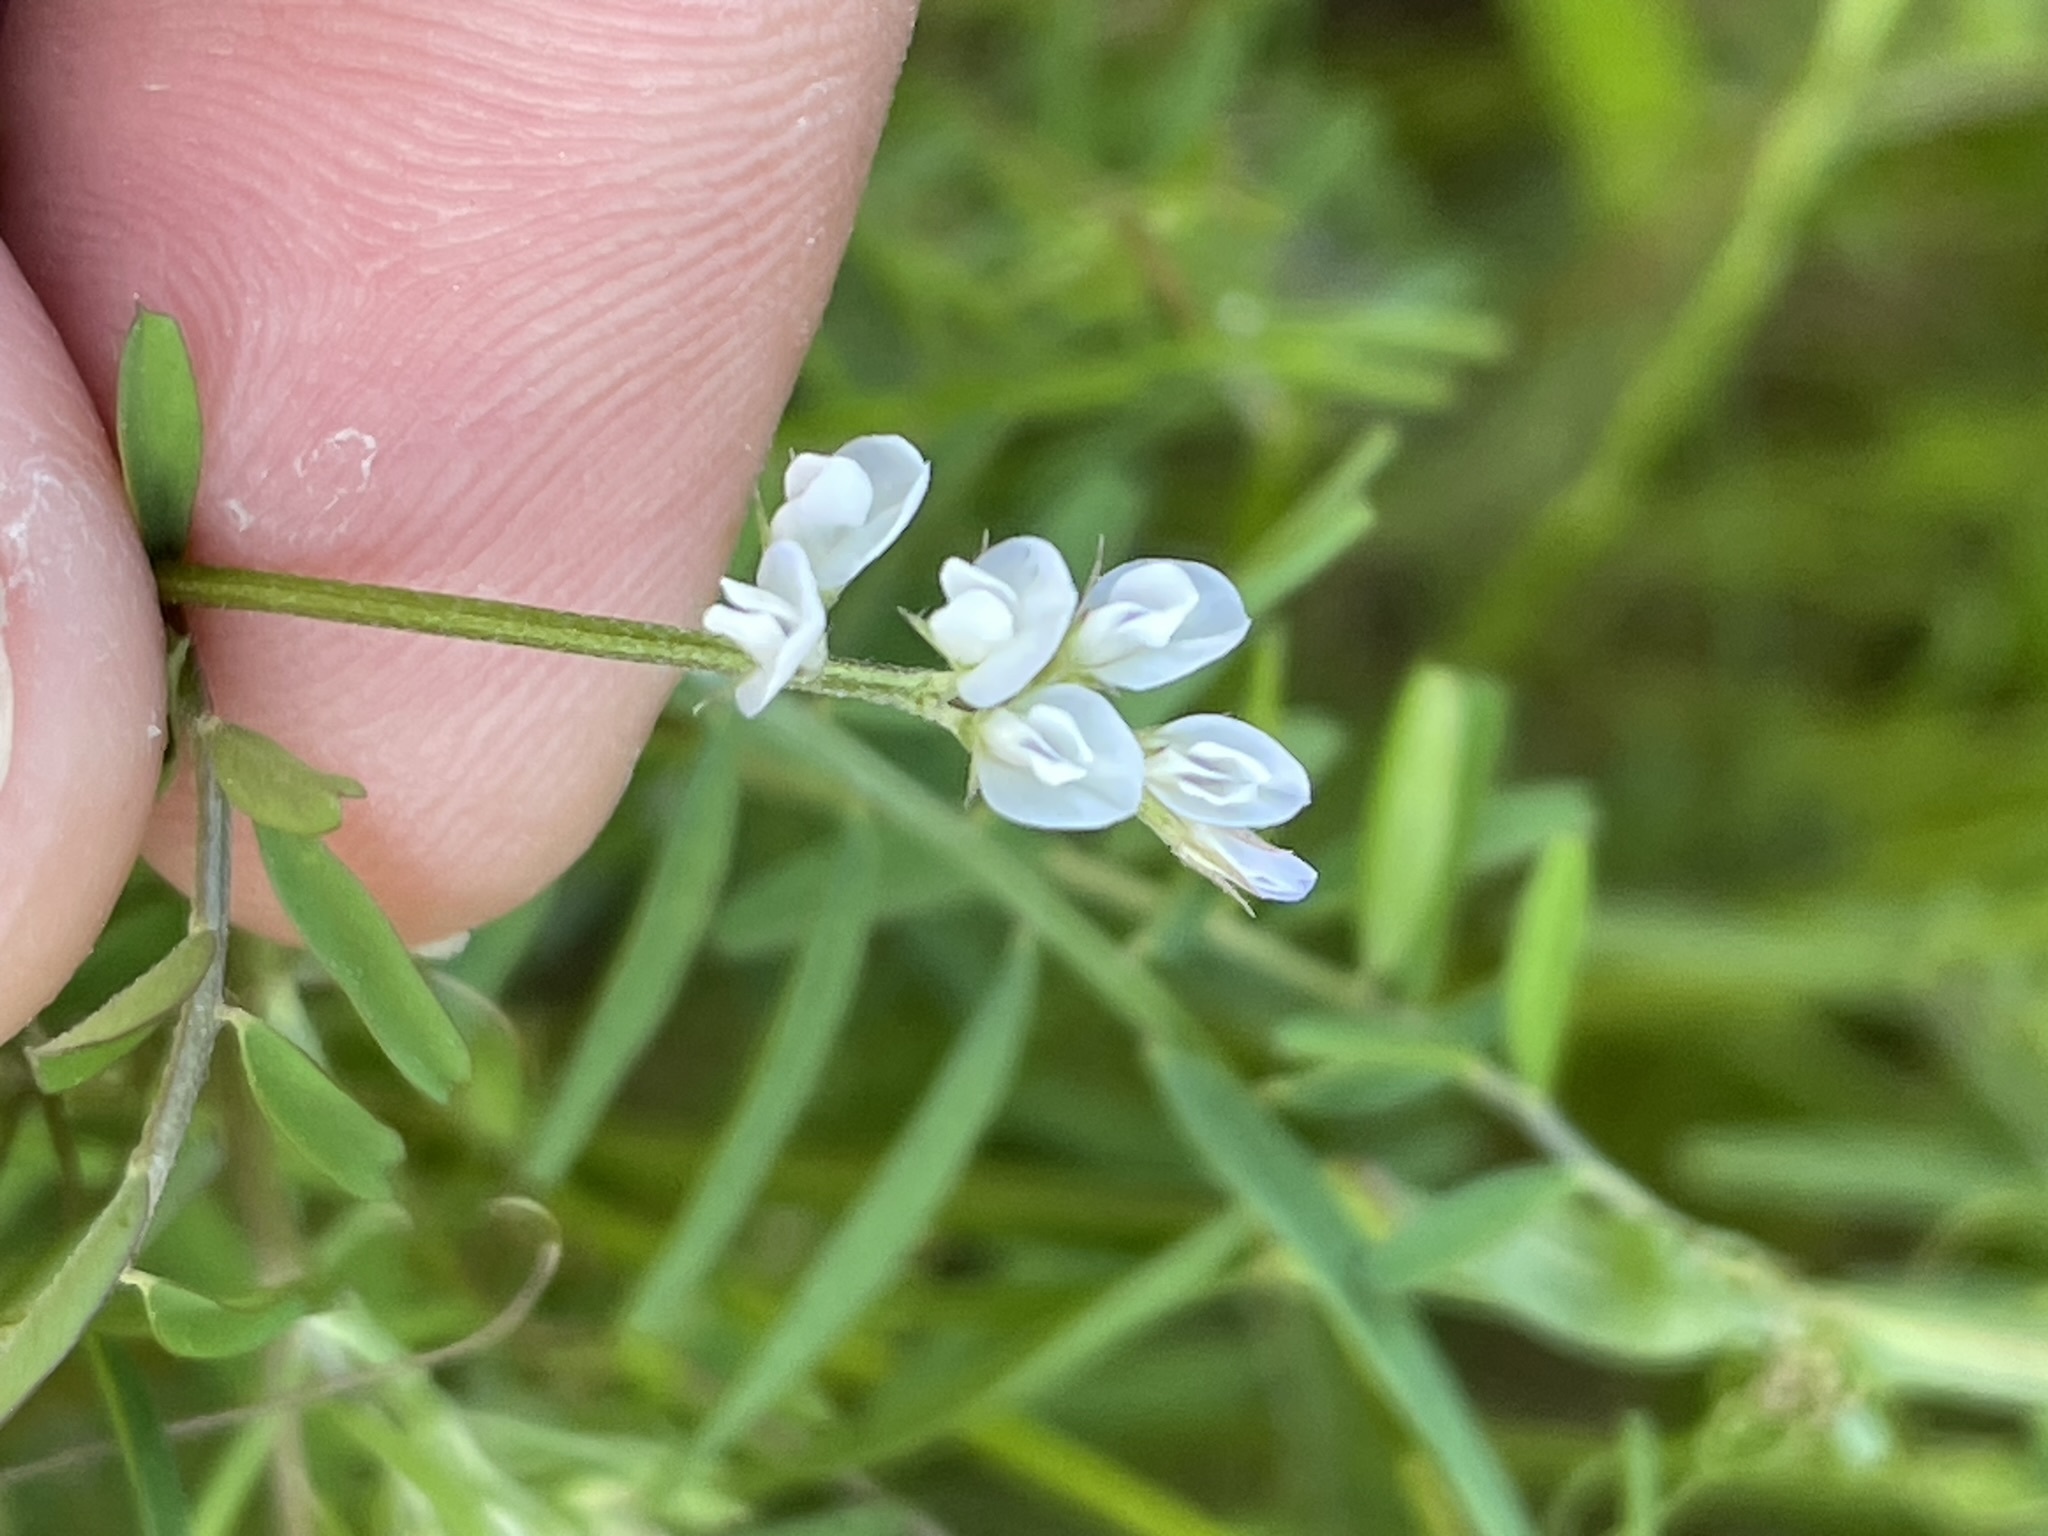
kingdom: Plantae
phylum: Tracheophyta
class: Magnoliopsida
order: Fabales
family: Fabaceae
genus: Vicia
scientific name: Vicia hirsuta
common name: Tiny vetch
